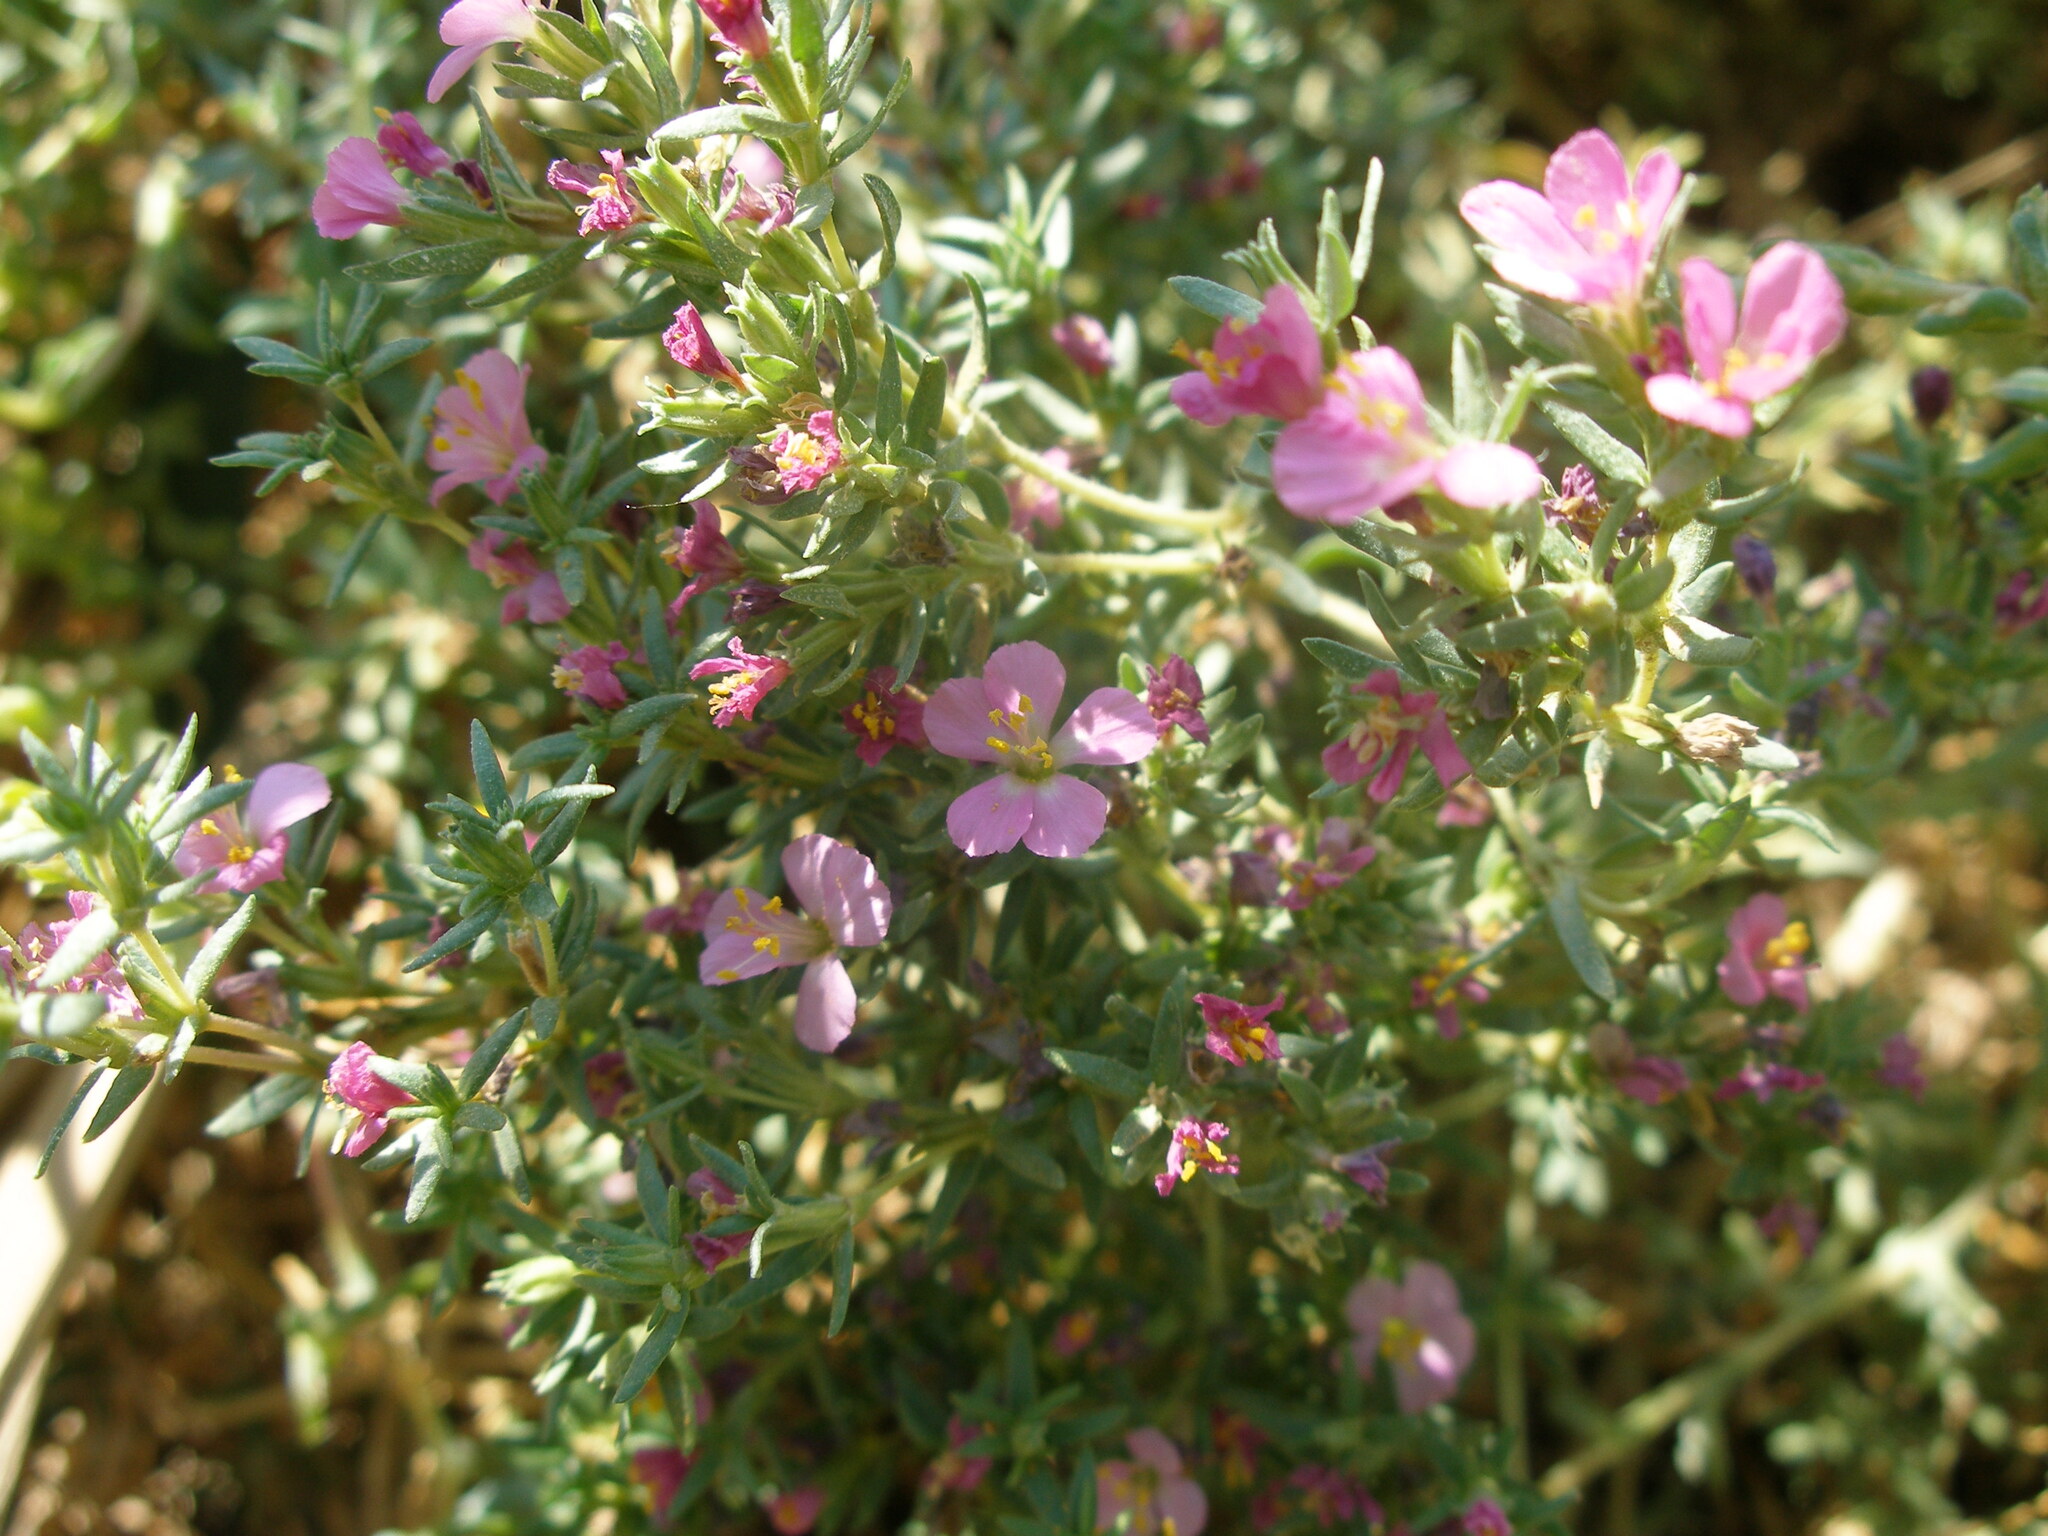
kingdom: Plantae
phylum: Tracheophyta
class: Magnoliopsida
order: Caryophyllales
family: Frankeniaceae
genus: Frankenia
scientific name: Frankenia hirsuta
